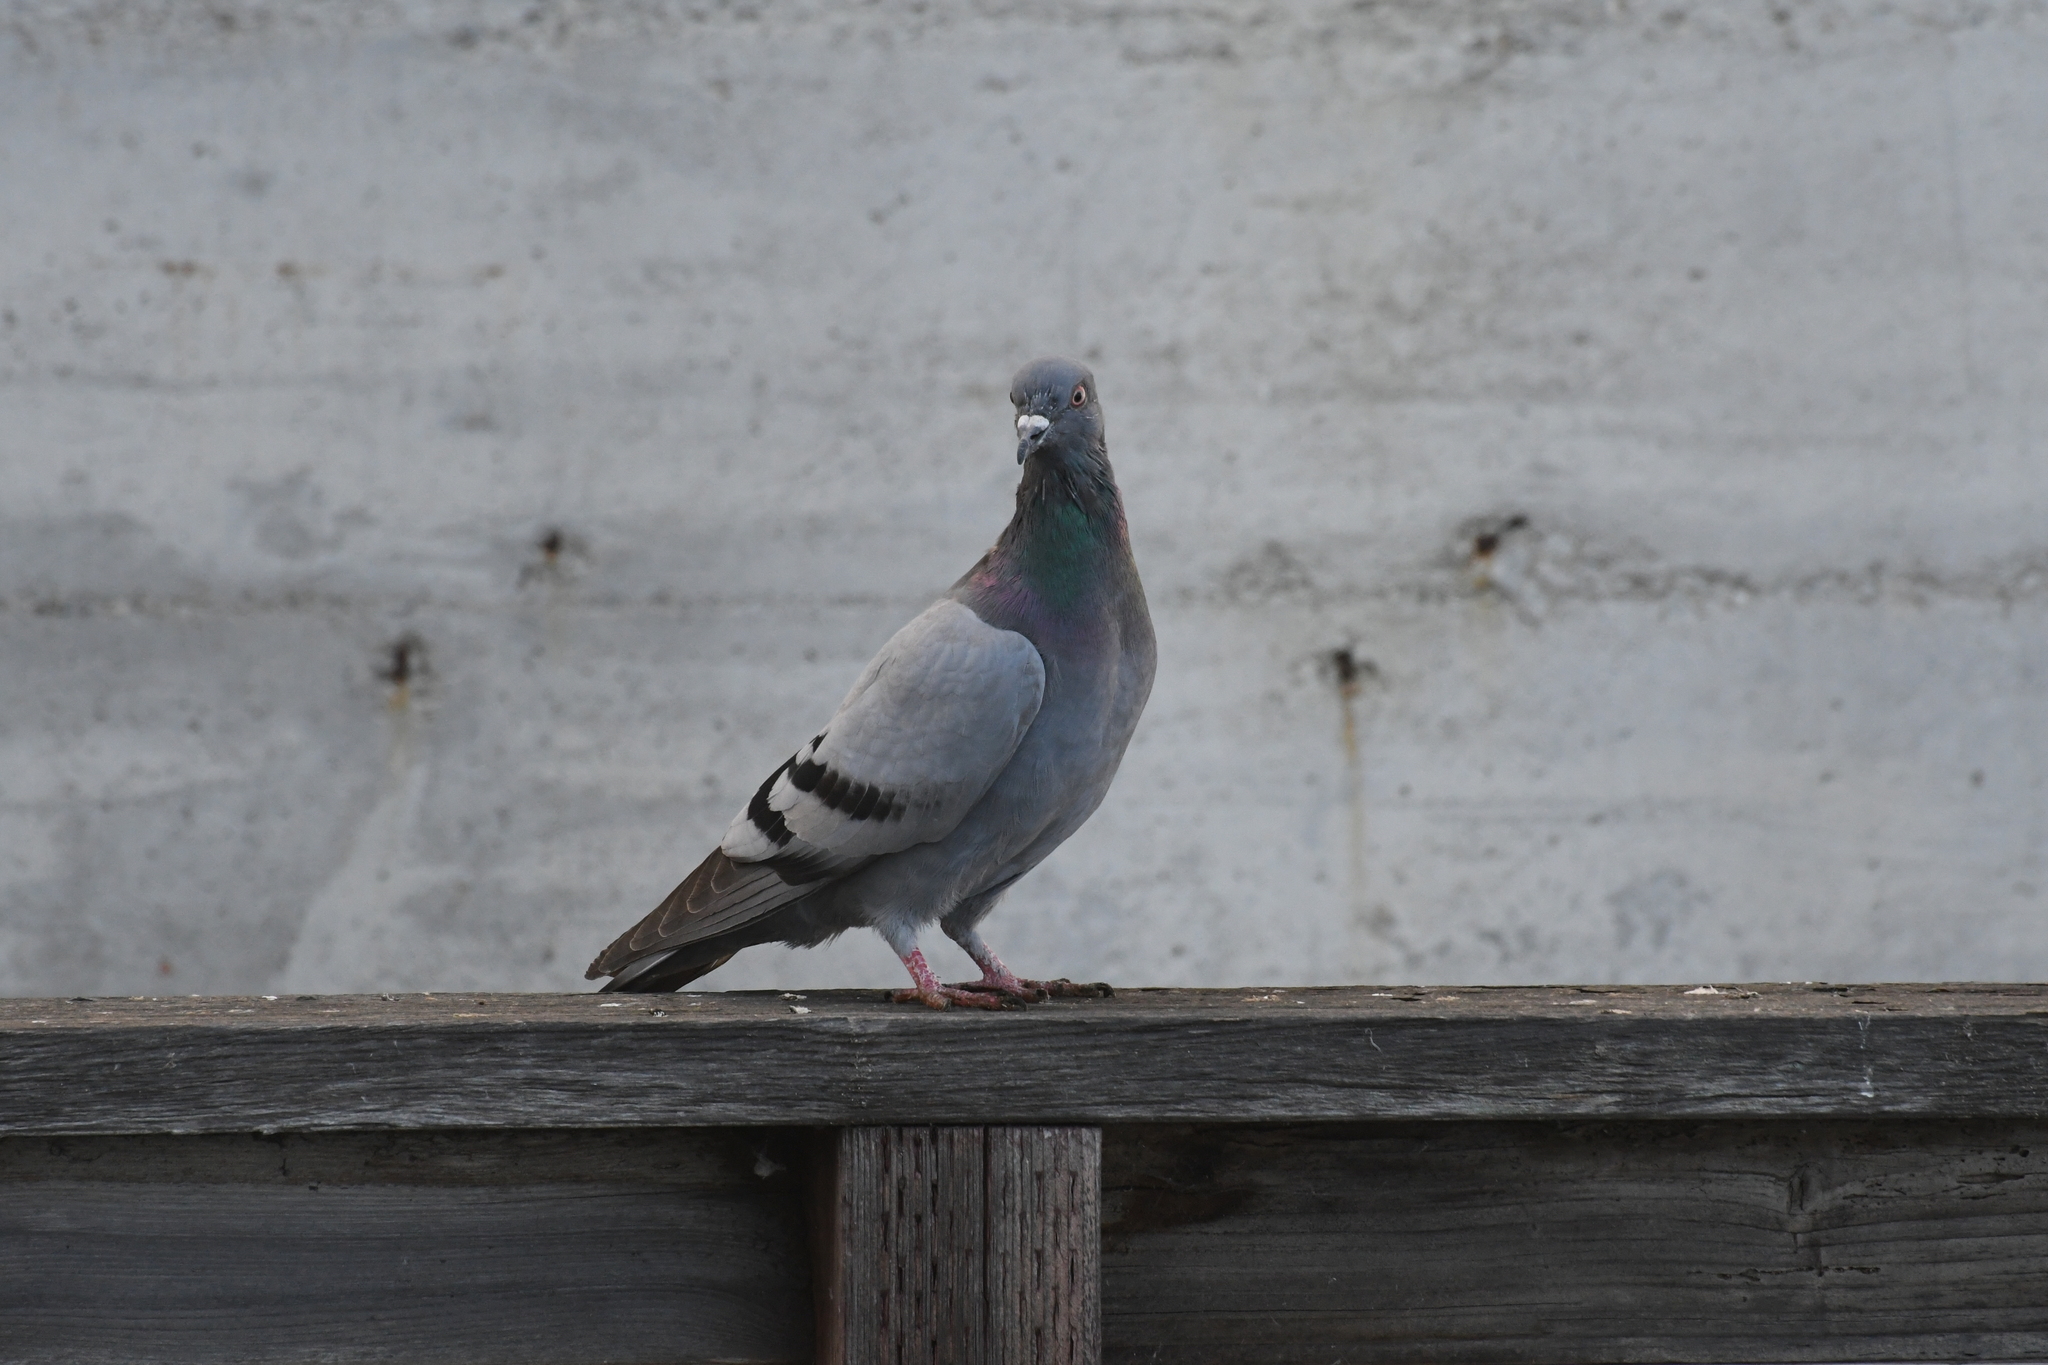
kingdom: Animalia
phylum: Chordata
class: Aves
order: Columbiformes
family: Columbidae
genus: Columba
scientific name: Columba livia
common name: Rock pigeon
